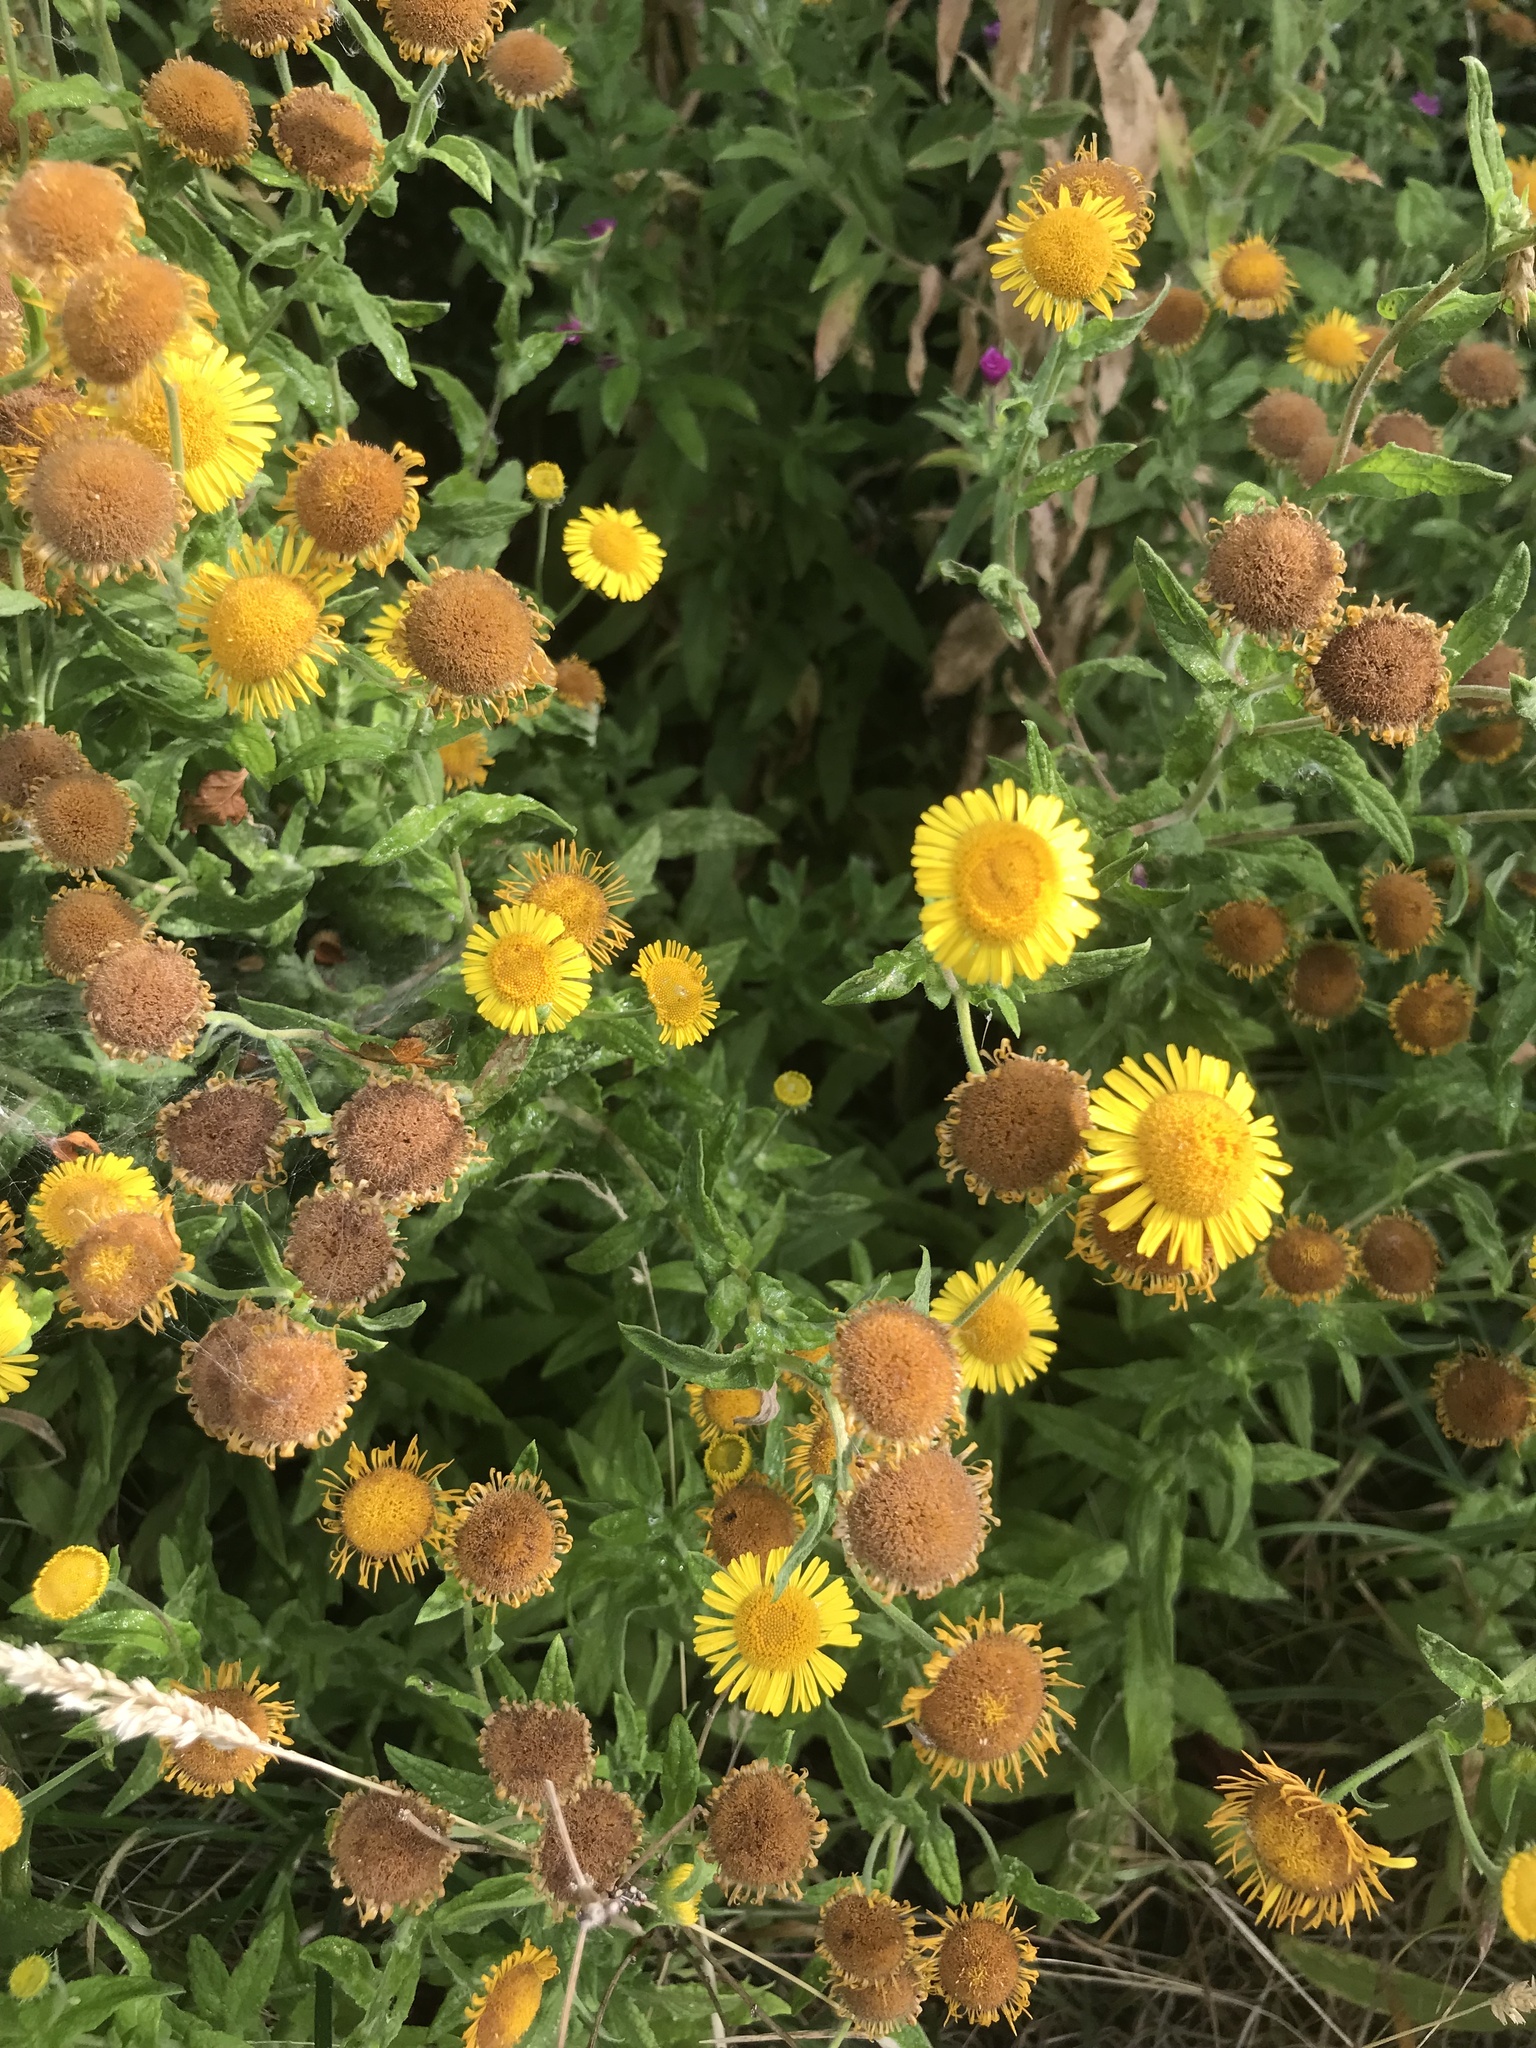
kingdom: Plantae
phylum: Tracheophyta
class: Magnoliopsida
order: Asterales
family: Asteraceae
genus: Pulicaria
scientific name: Pulicaria dysenterica
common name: Common fleabane
